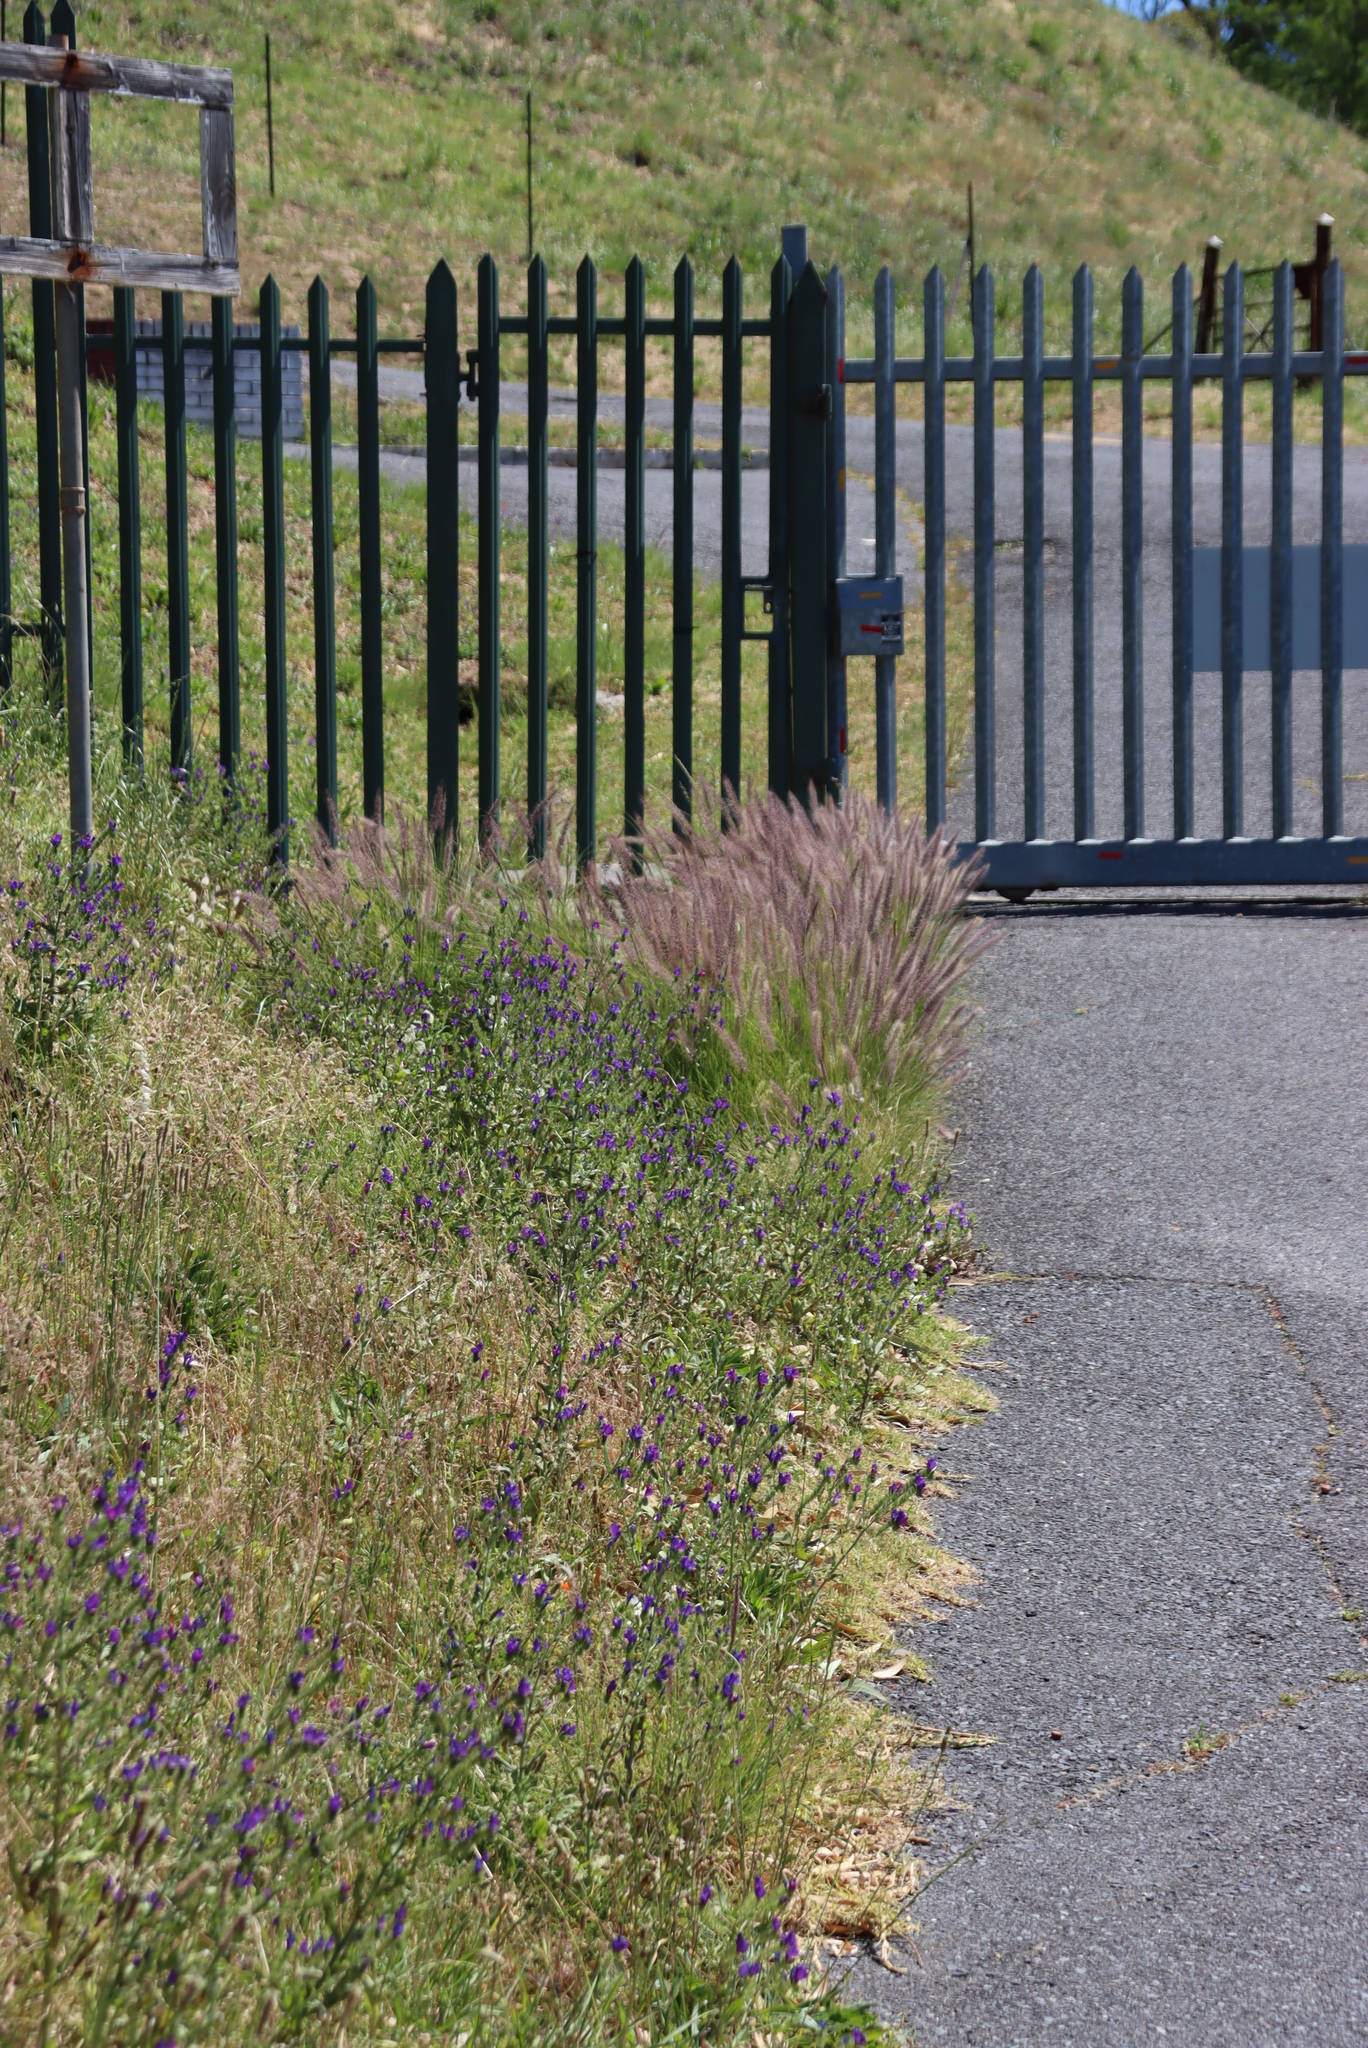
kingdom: Plantae
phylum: Tracheophyta
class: Liliopsida
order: Poales
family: Poaceae
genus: Cenchrus
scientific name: Cenchrus setaceus
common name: Crimson fountaingrass
